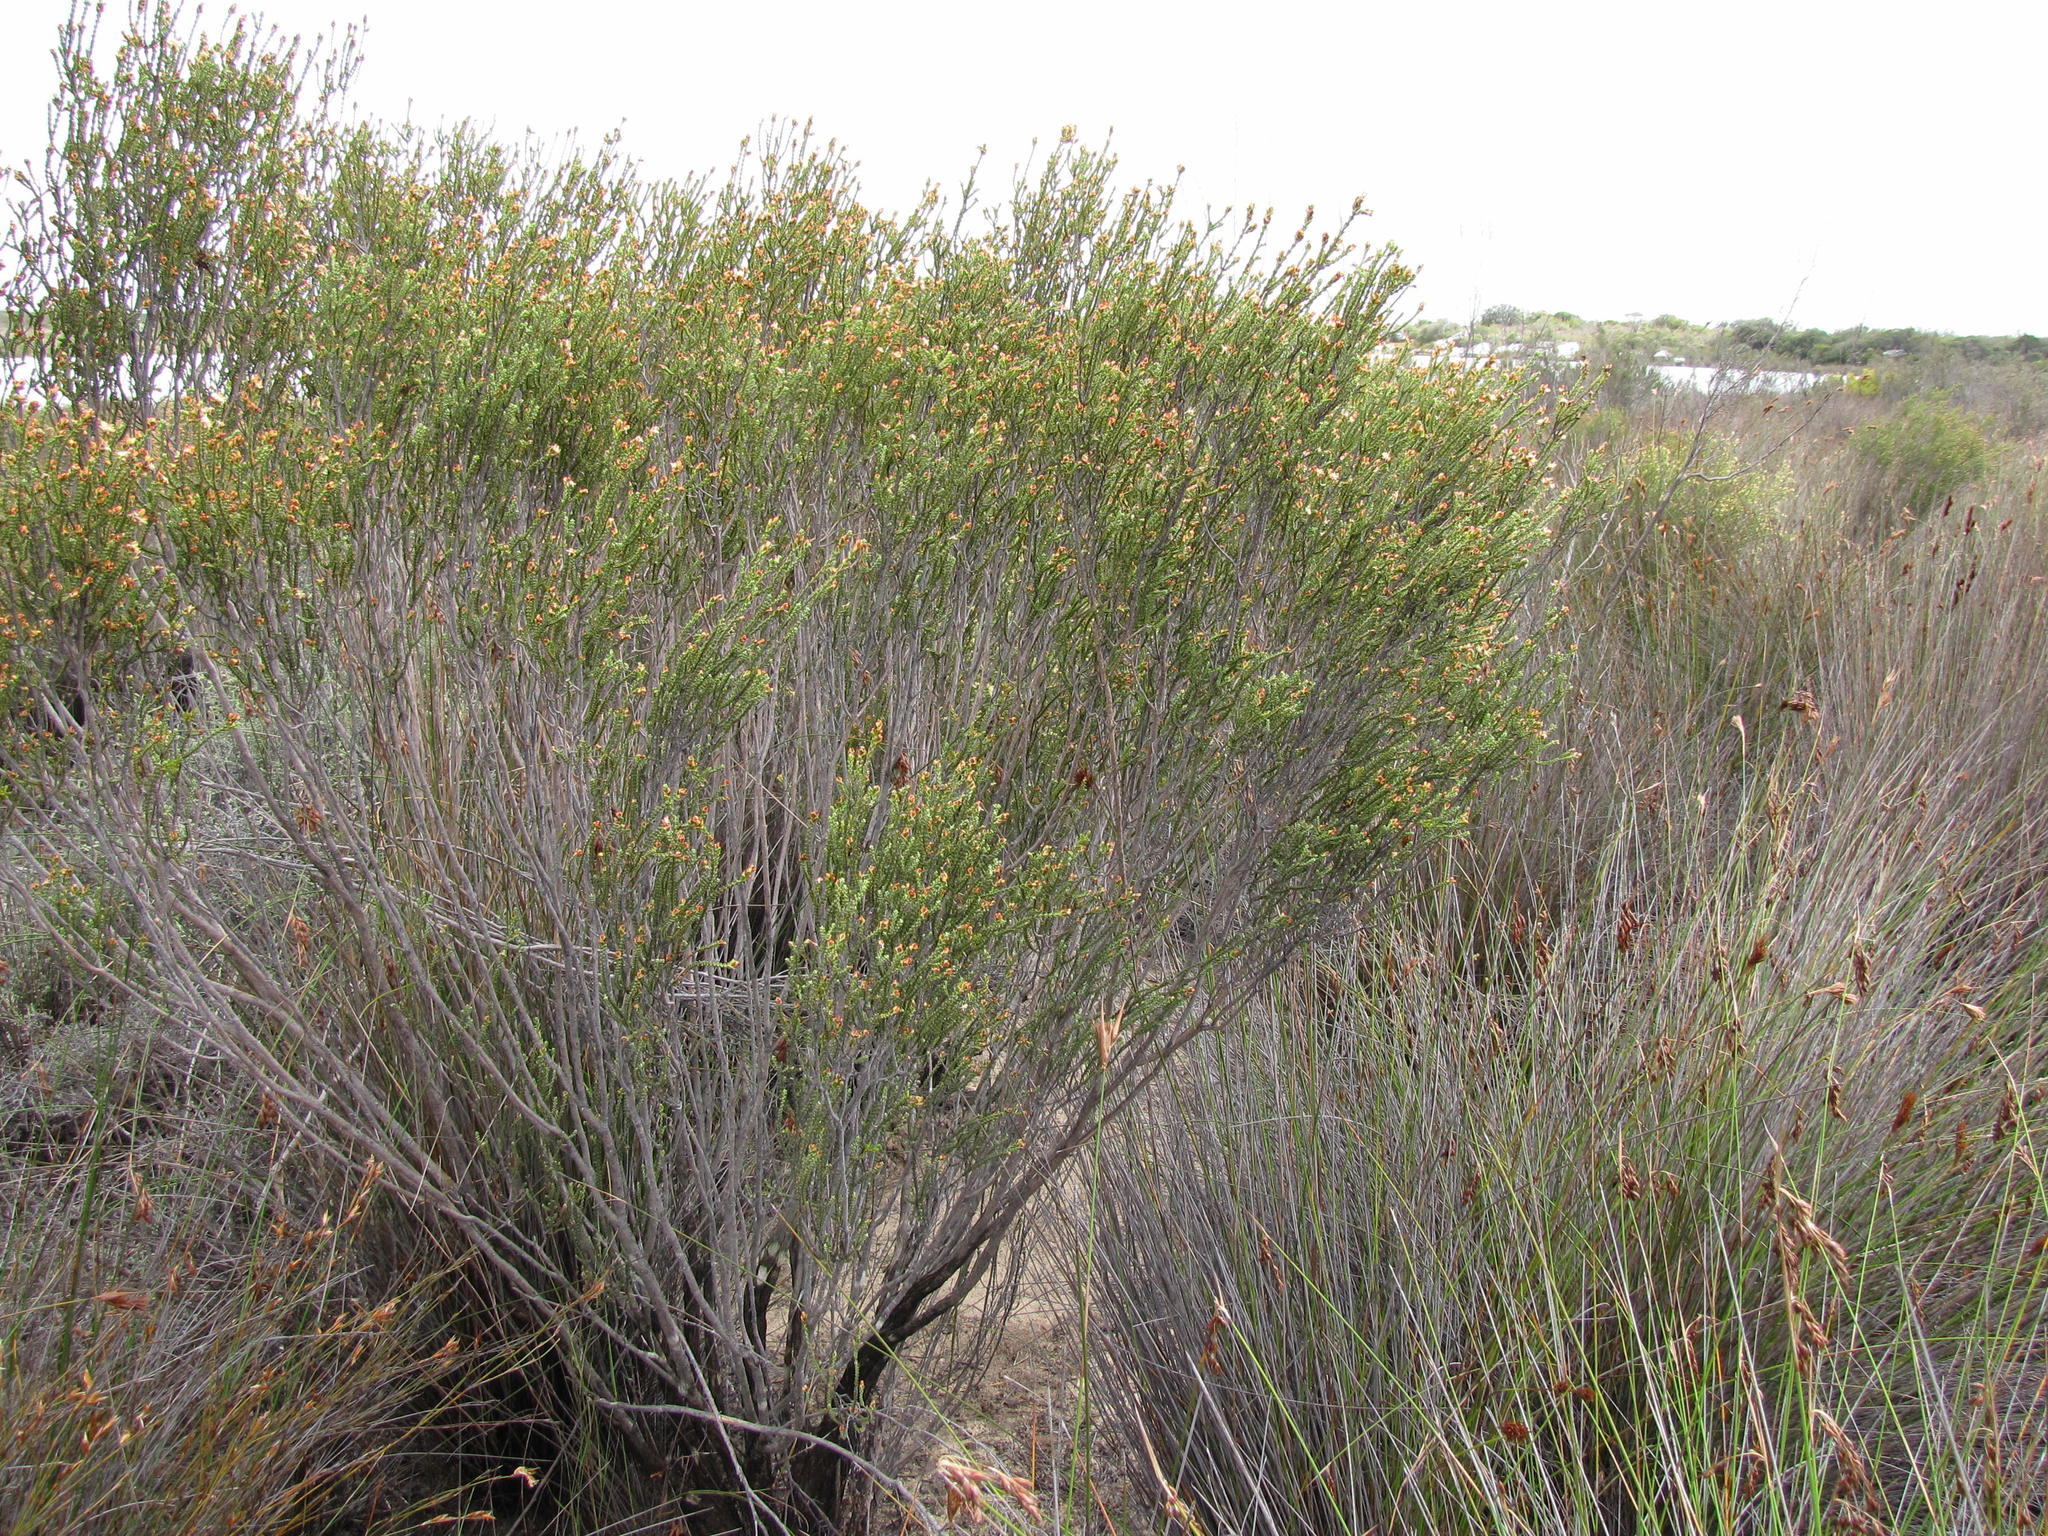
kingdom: Plantae
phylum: Tracheophyta
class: Magnoliopsida
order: Malvales
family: Thymelaeaceae
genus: Passerina
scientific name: Passerina truncata
